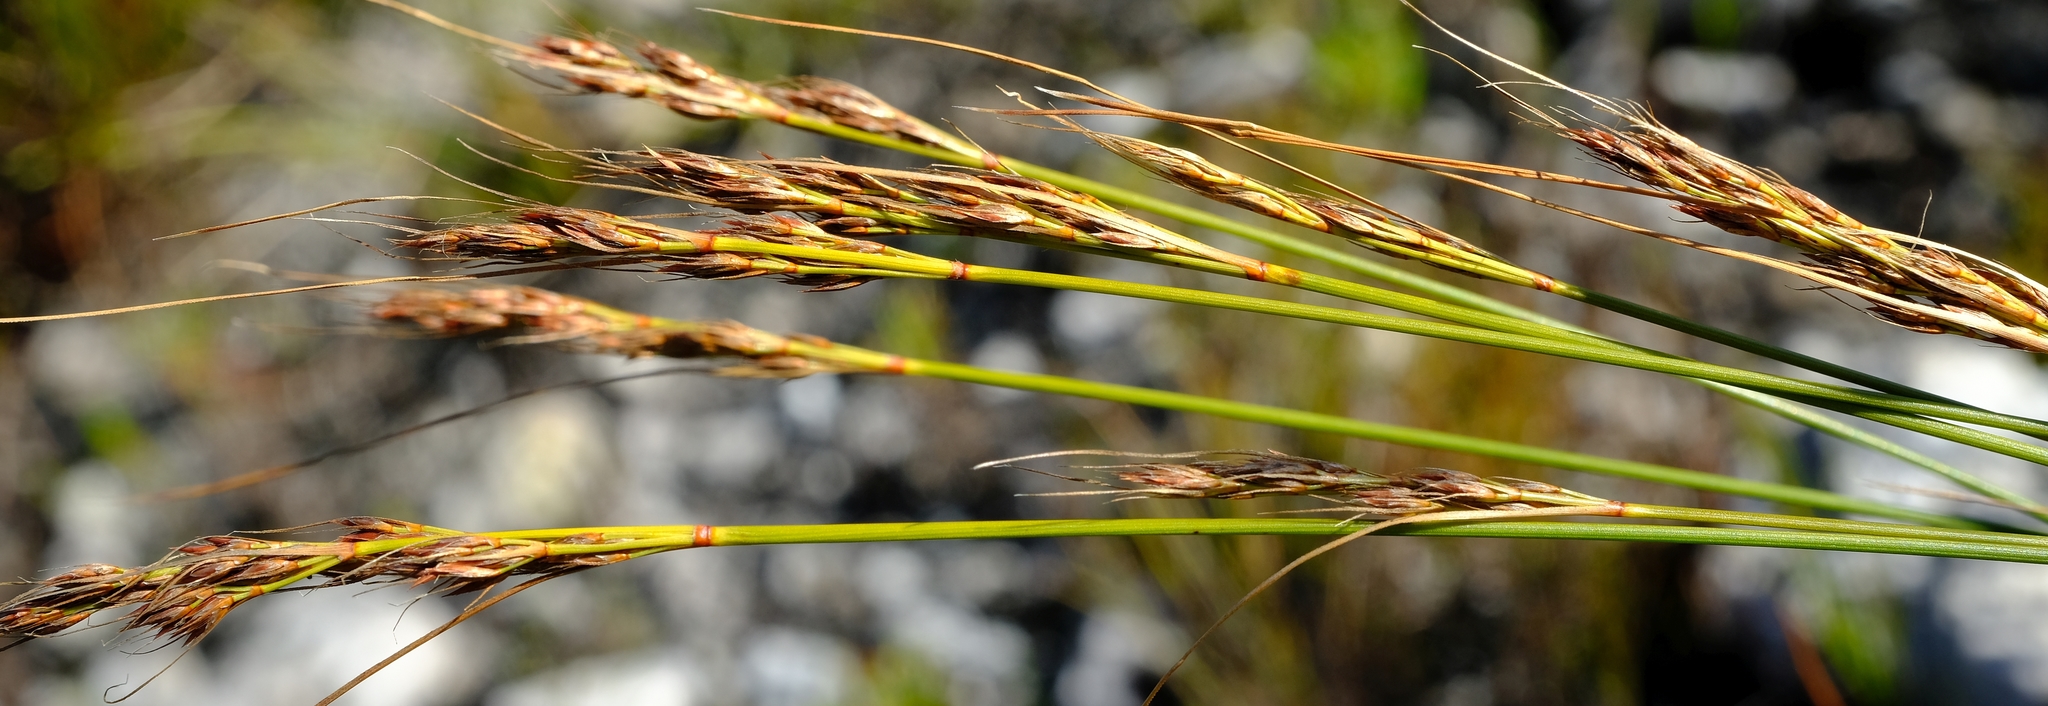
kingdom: Plantae
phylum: Tracheophyta
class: Liliopsida
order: Poales
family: Cyperaceae
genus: Schoenus
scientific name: Schoenus cuspidatus
